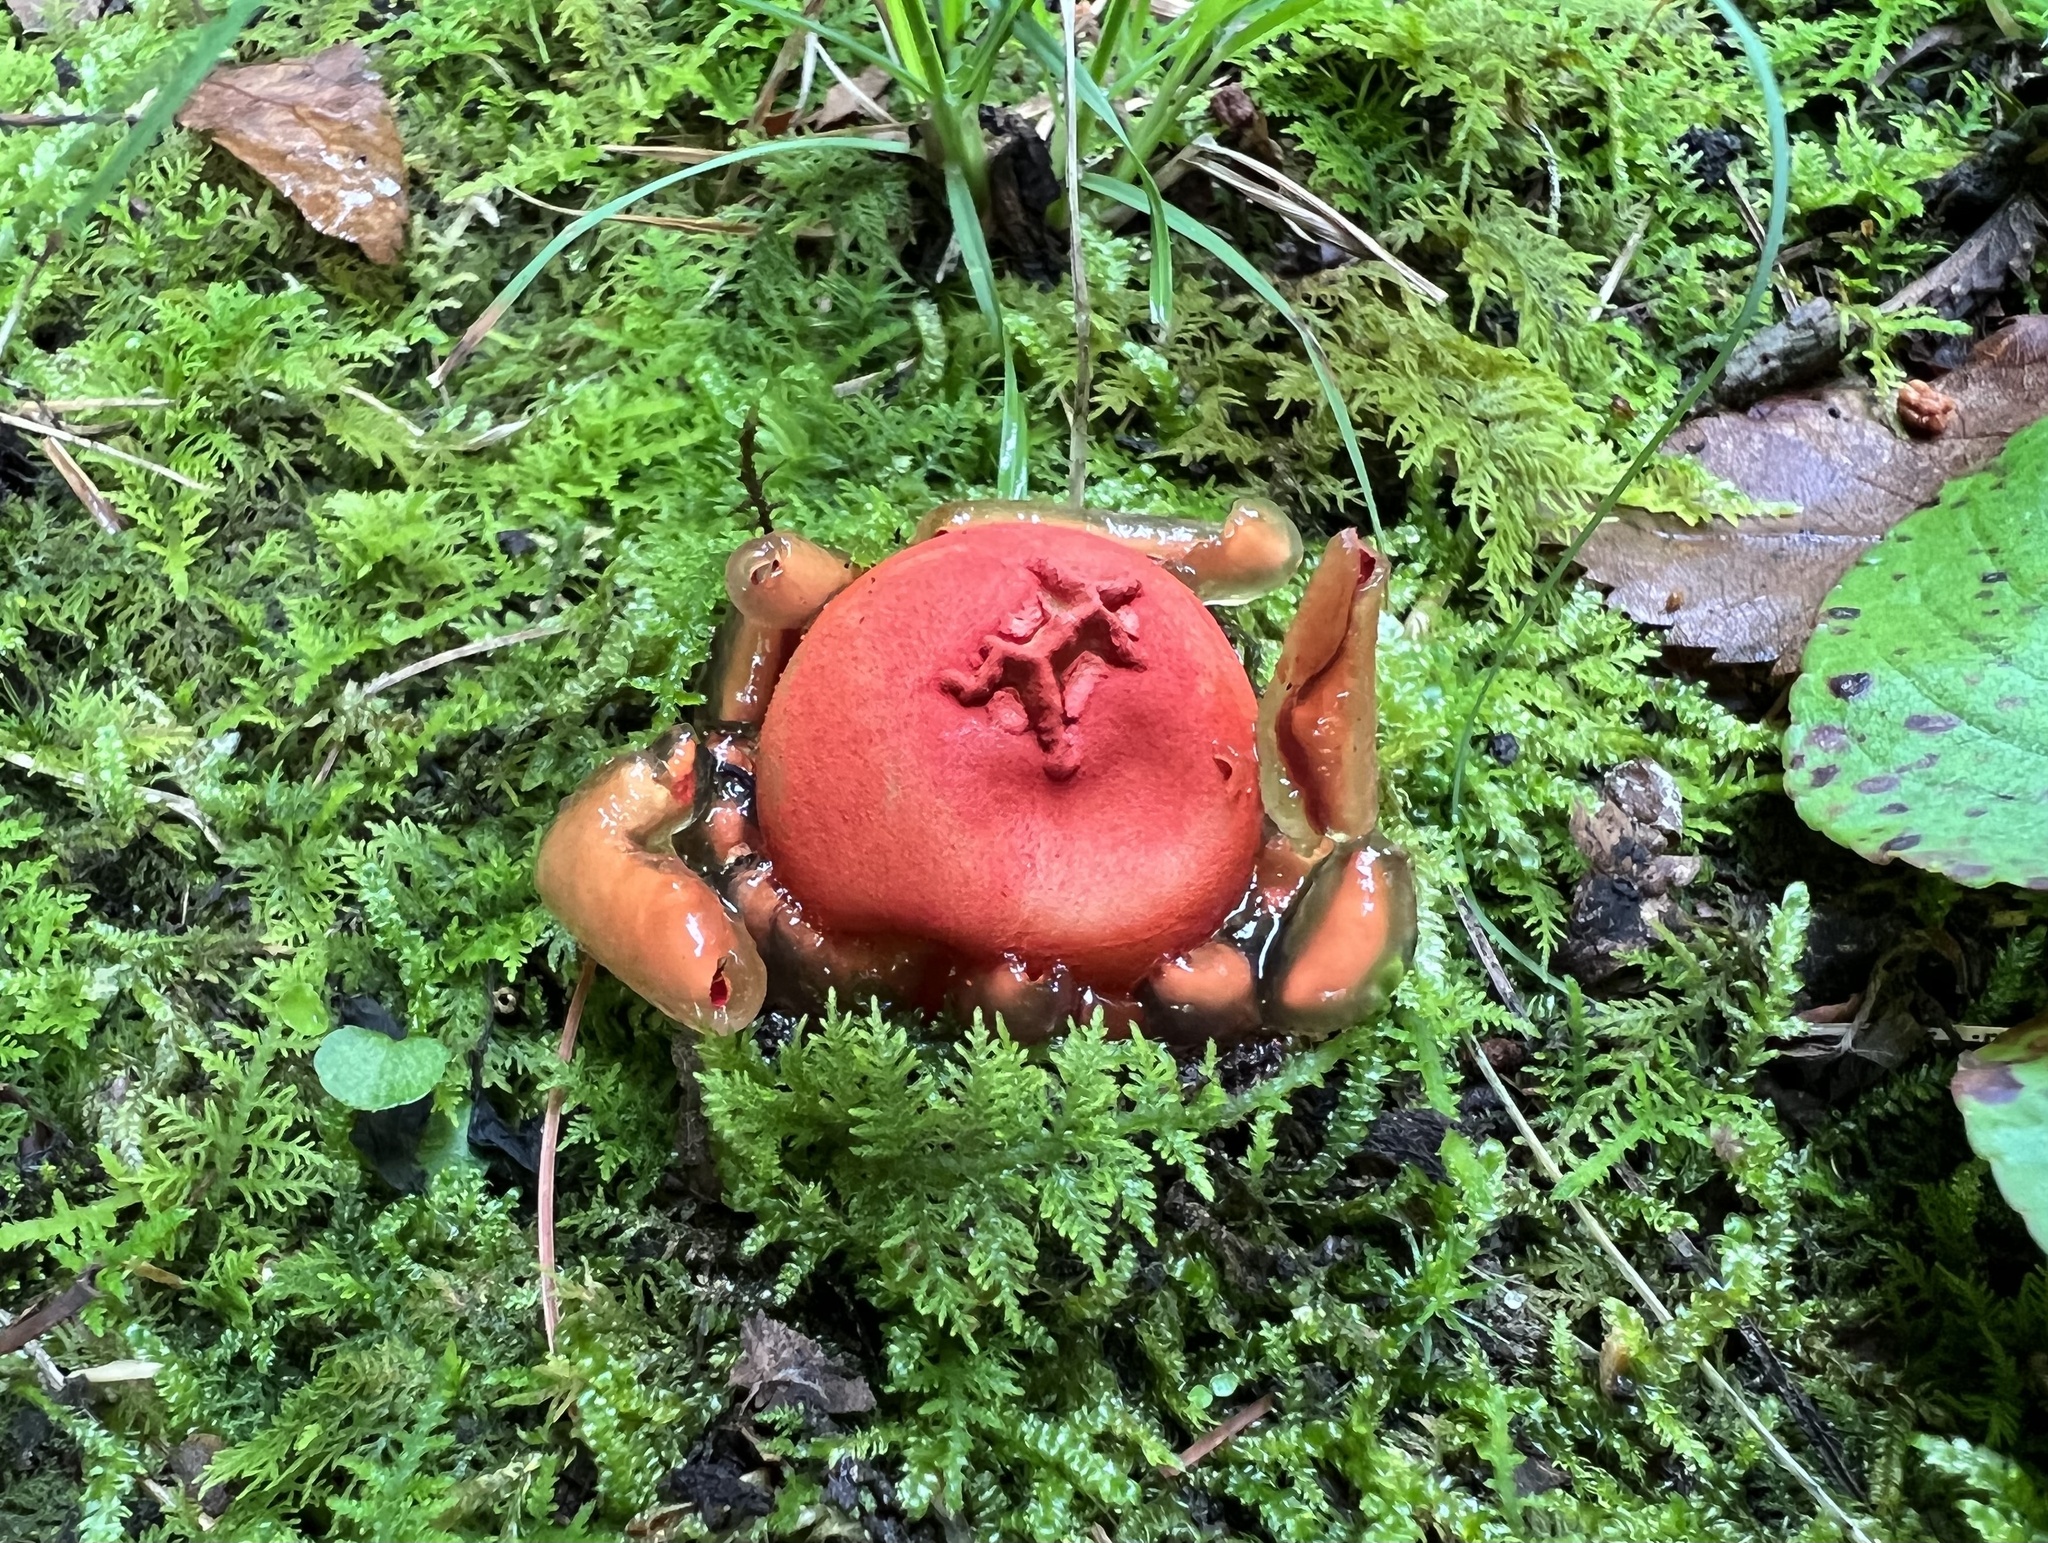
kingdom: Fungi
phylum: Basidiomycota
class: Agaricomycetes
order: Boletales
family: Calostomataceae
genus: Calostoma
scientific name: Calostoma cinnabarinum
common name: Stalked puffball-in-aspic
